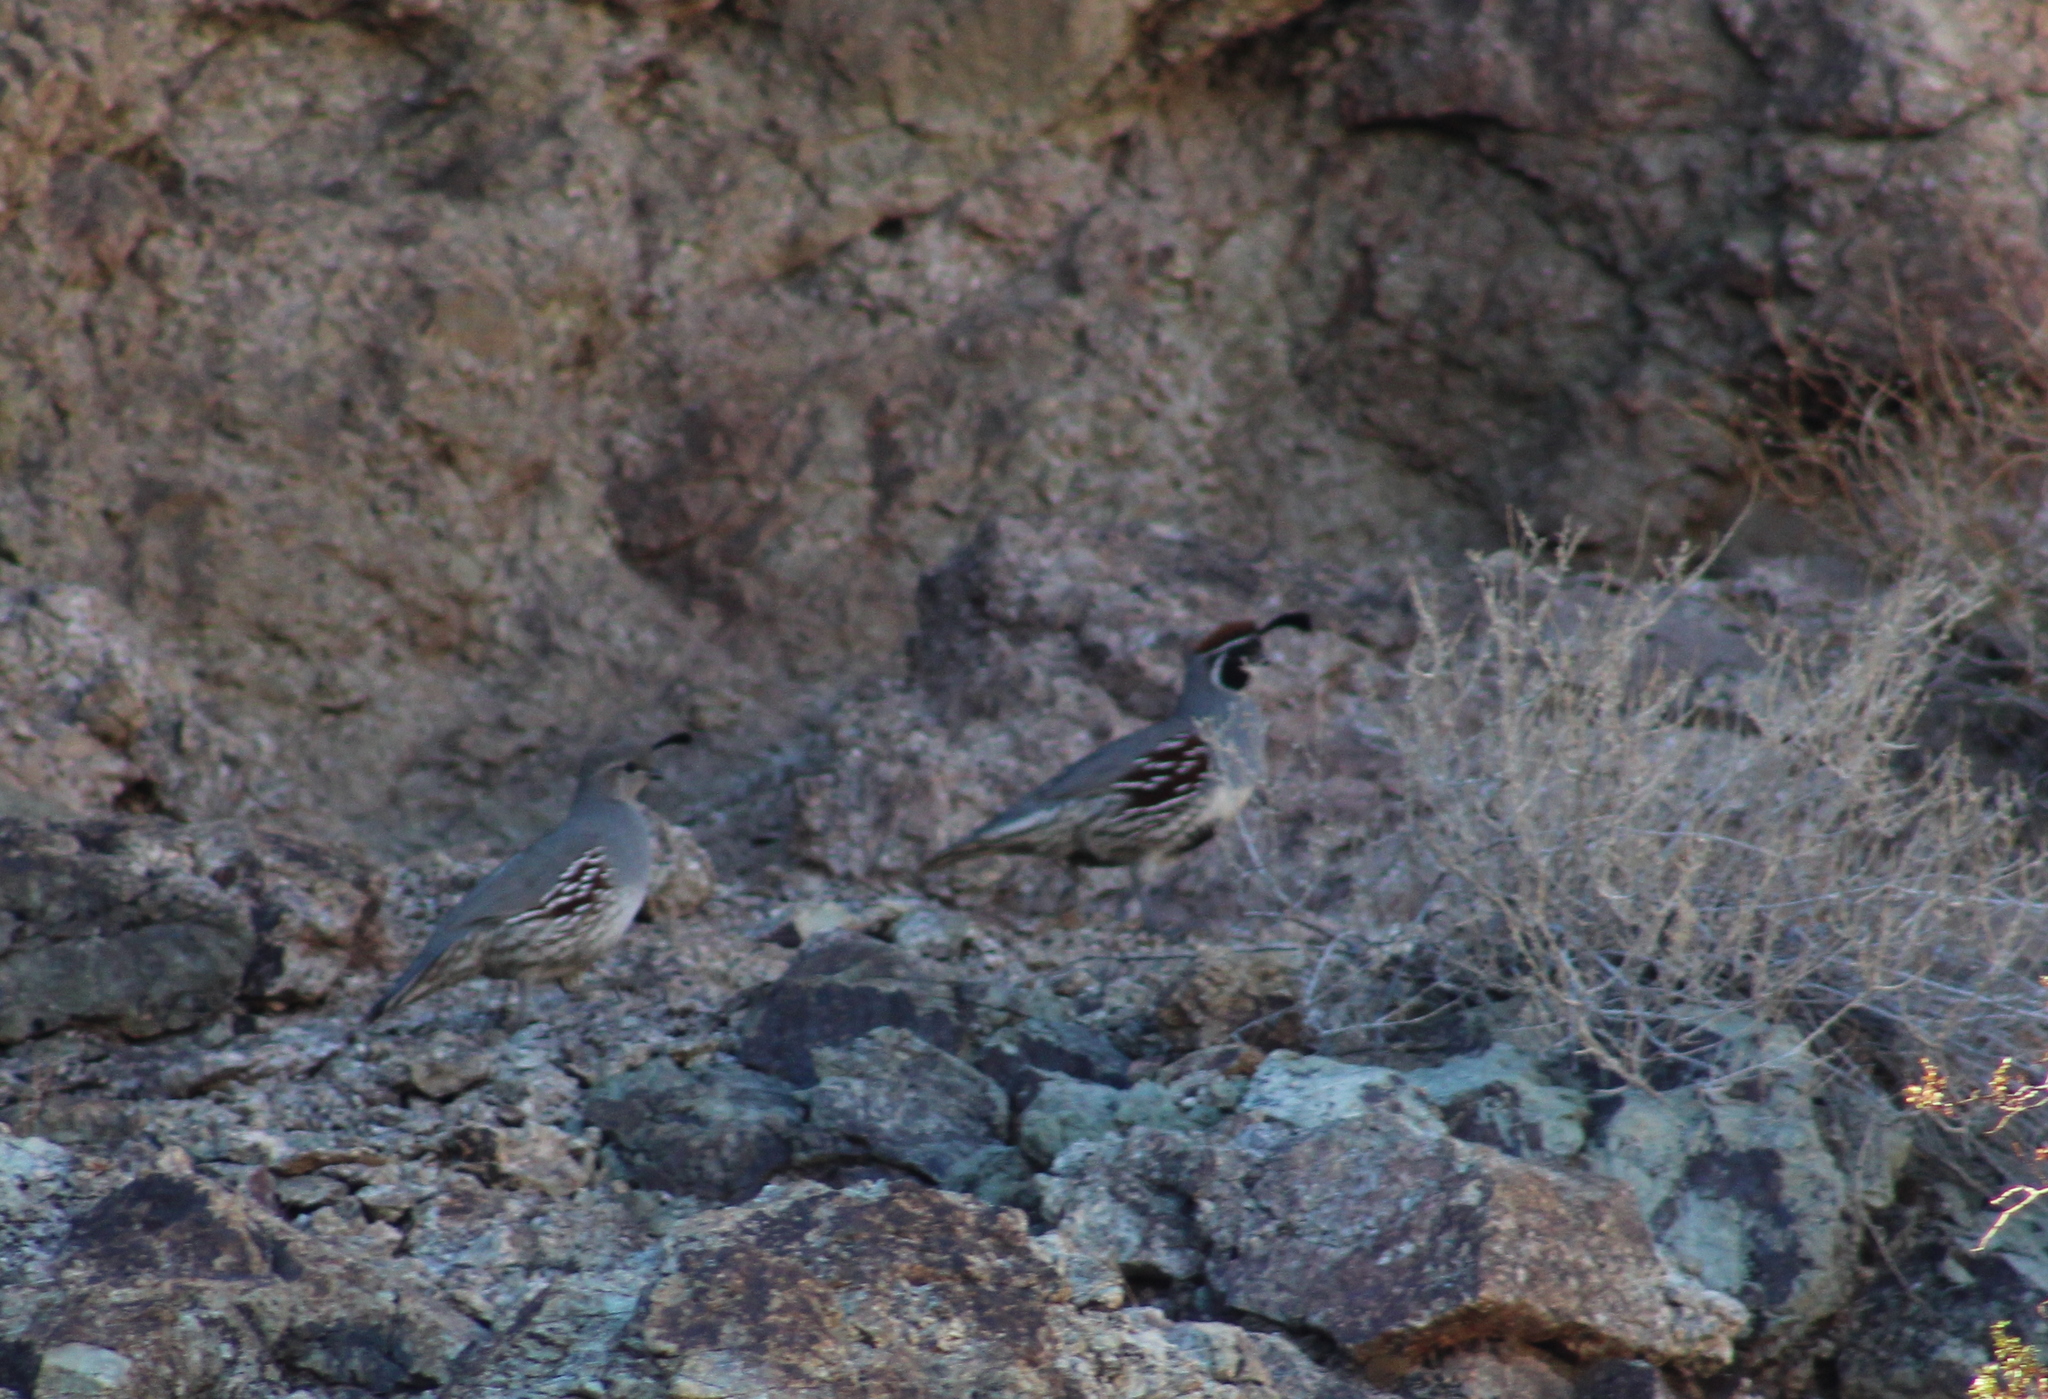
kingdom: Animalia
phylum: Chordata
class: Aves
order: Galliformes
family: Odontophoridae
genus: Callipepla
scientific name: Callipepla gambelii
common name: Gambel's quail
